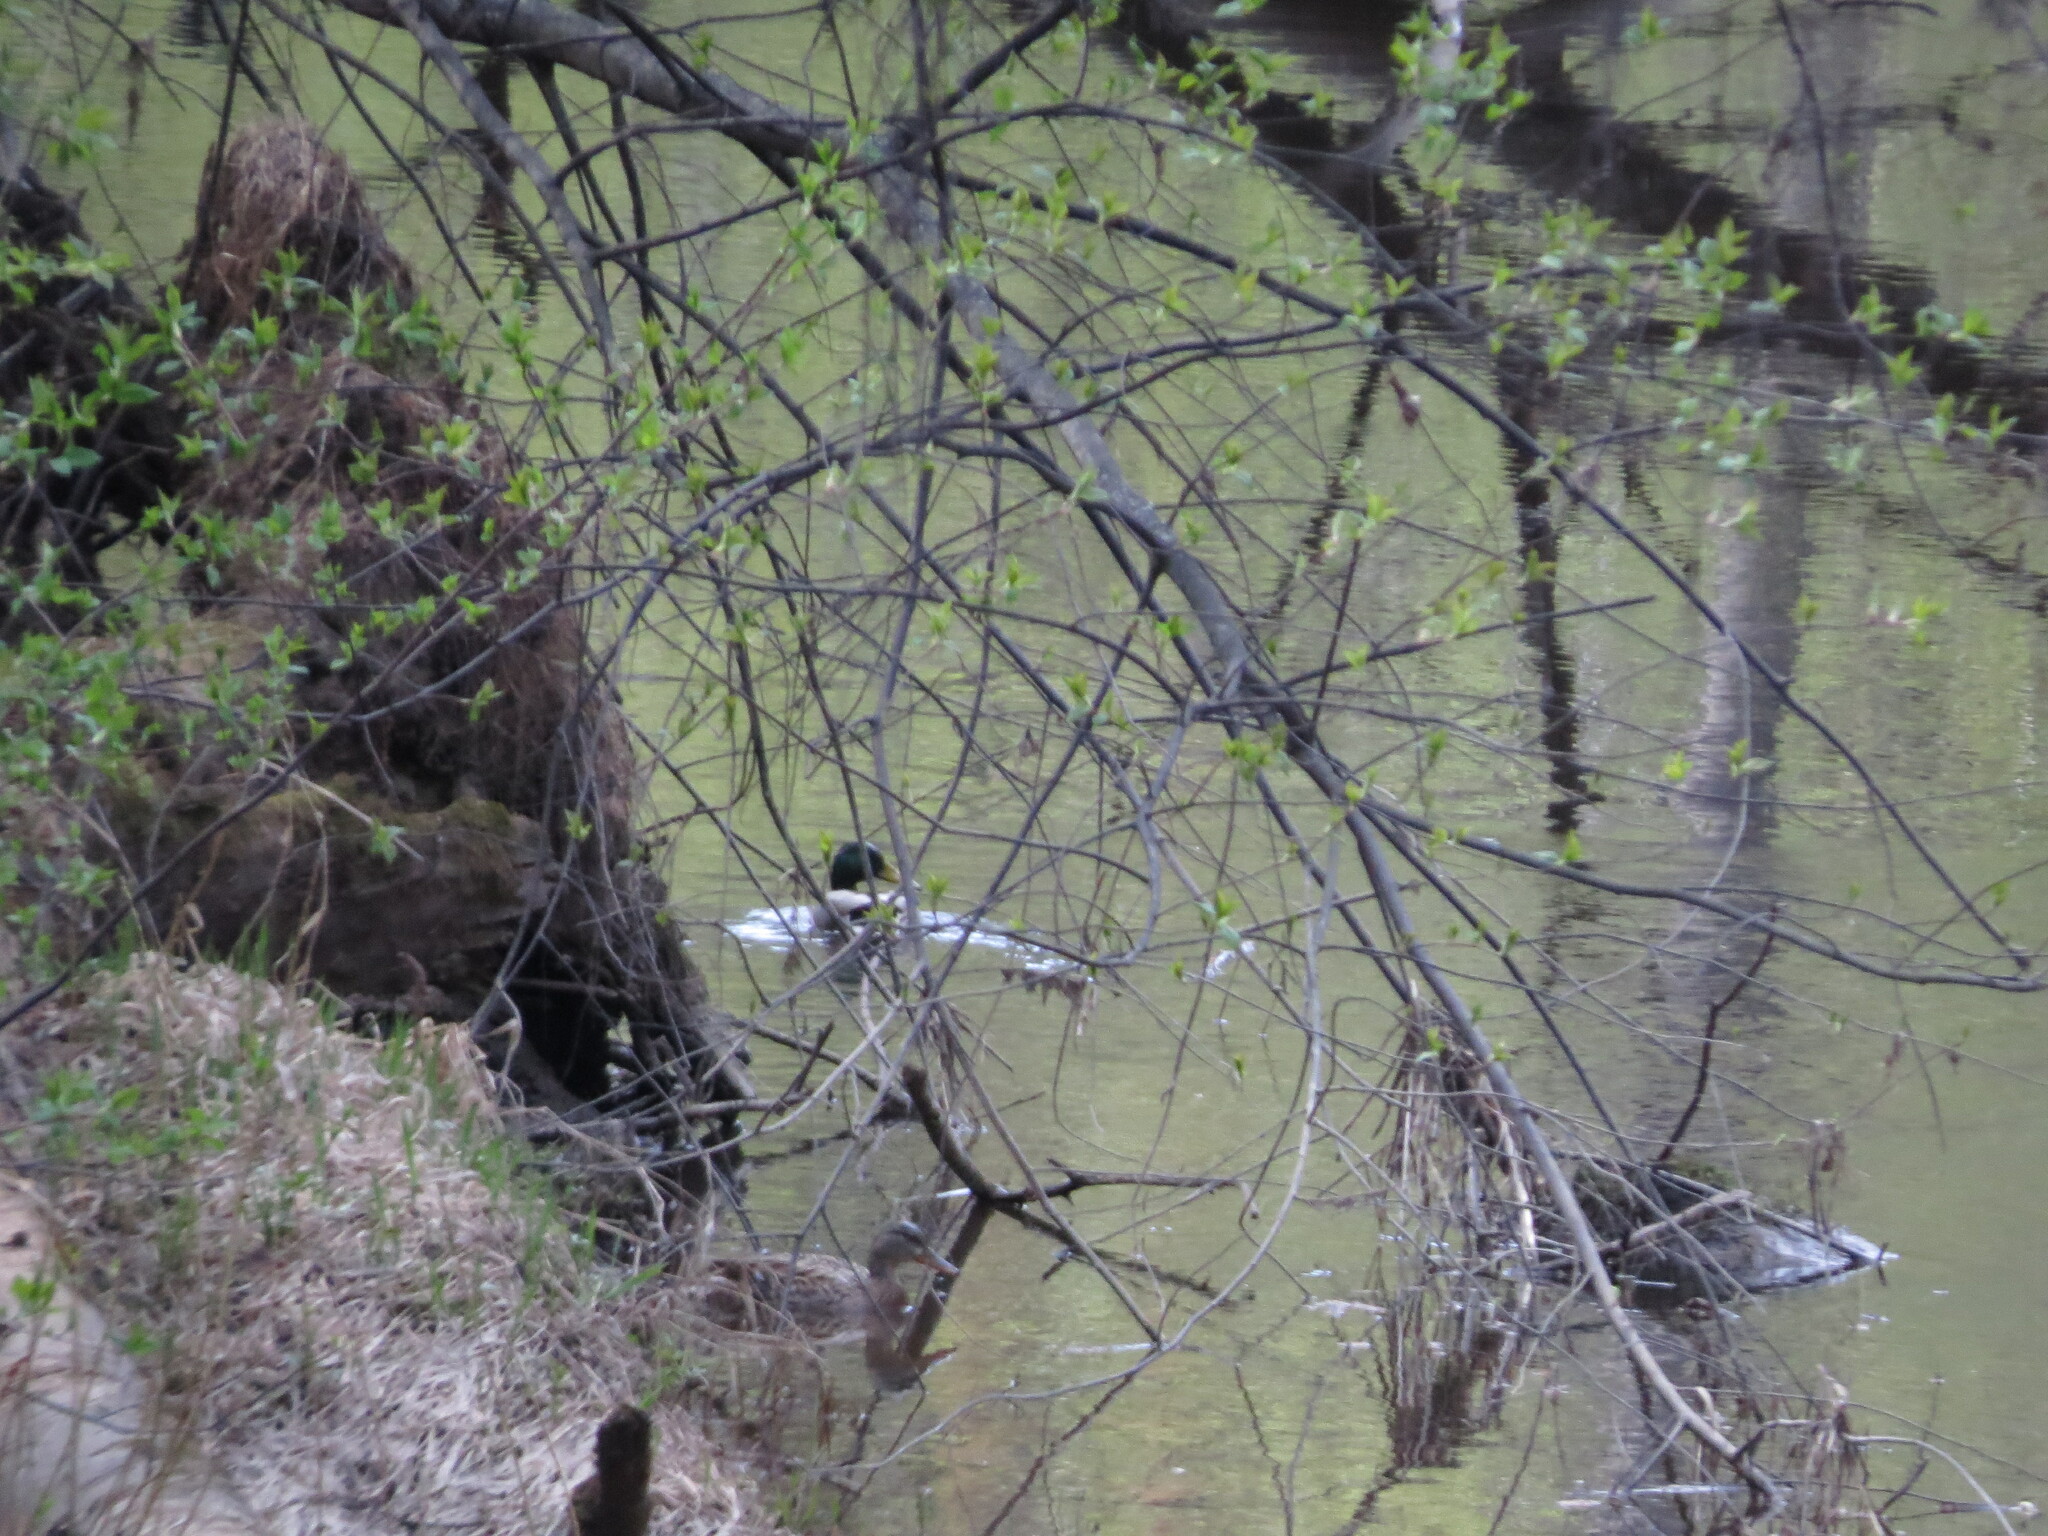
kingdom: Animalia
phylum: Chordata
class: Aves
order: Anseriformes
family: Anatidae
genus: Anas
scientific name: Anas platyrhynchos
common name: Mallard
